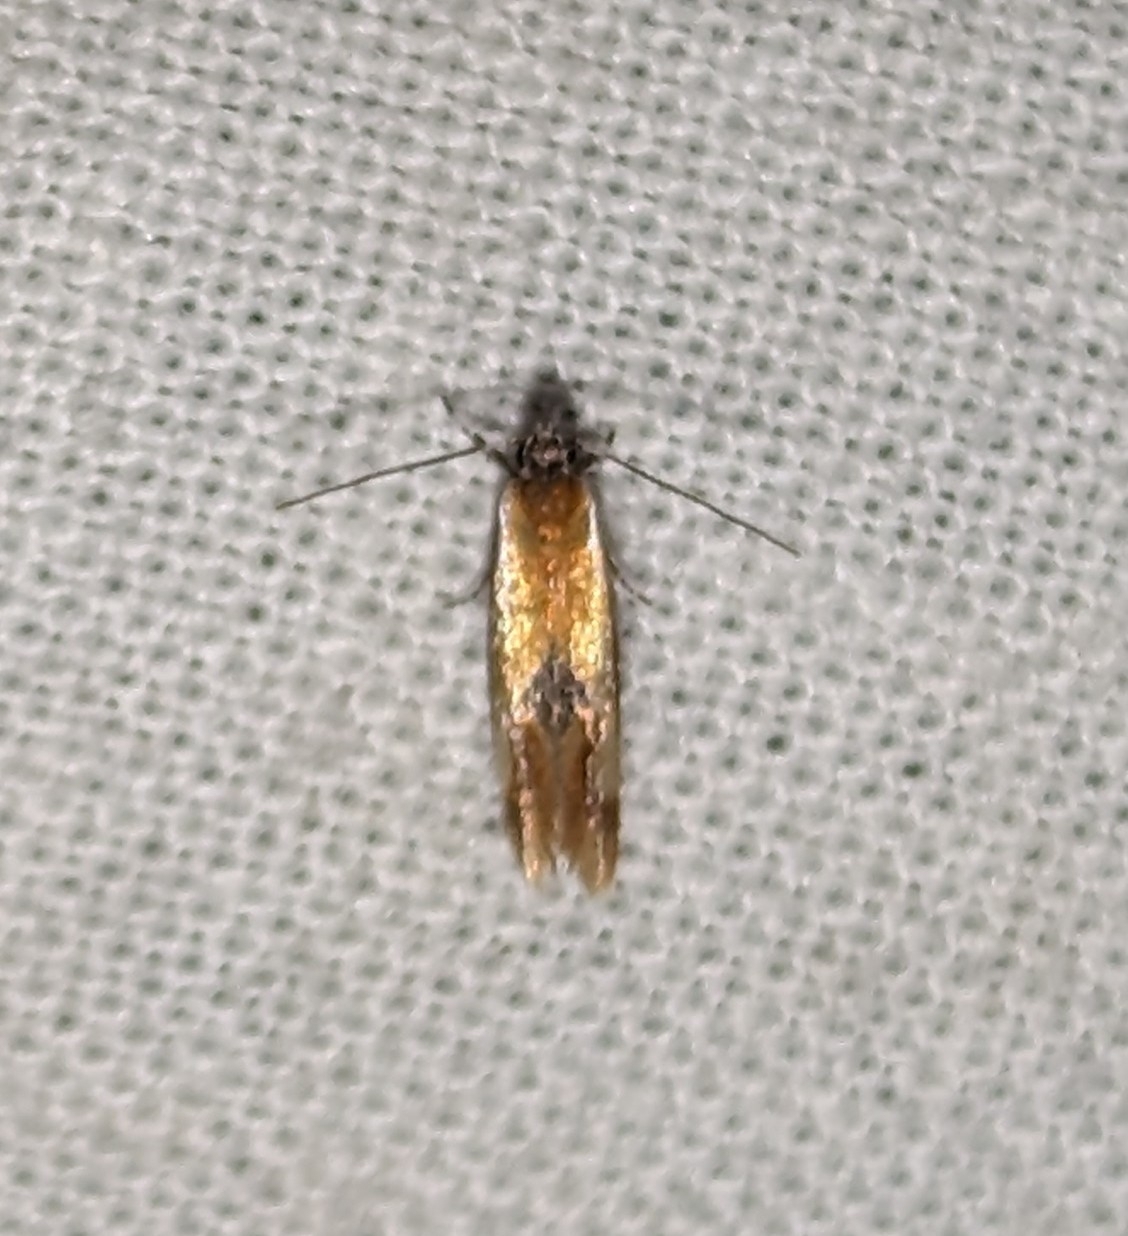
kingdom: Animalia
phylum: Arthropoda
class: Insecta
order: Lepidoptera
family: Oecophoridae
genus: Batia
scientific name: Batia lunaris
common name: Moth
